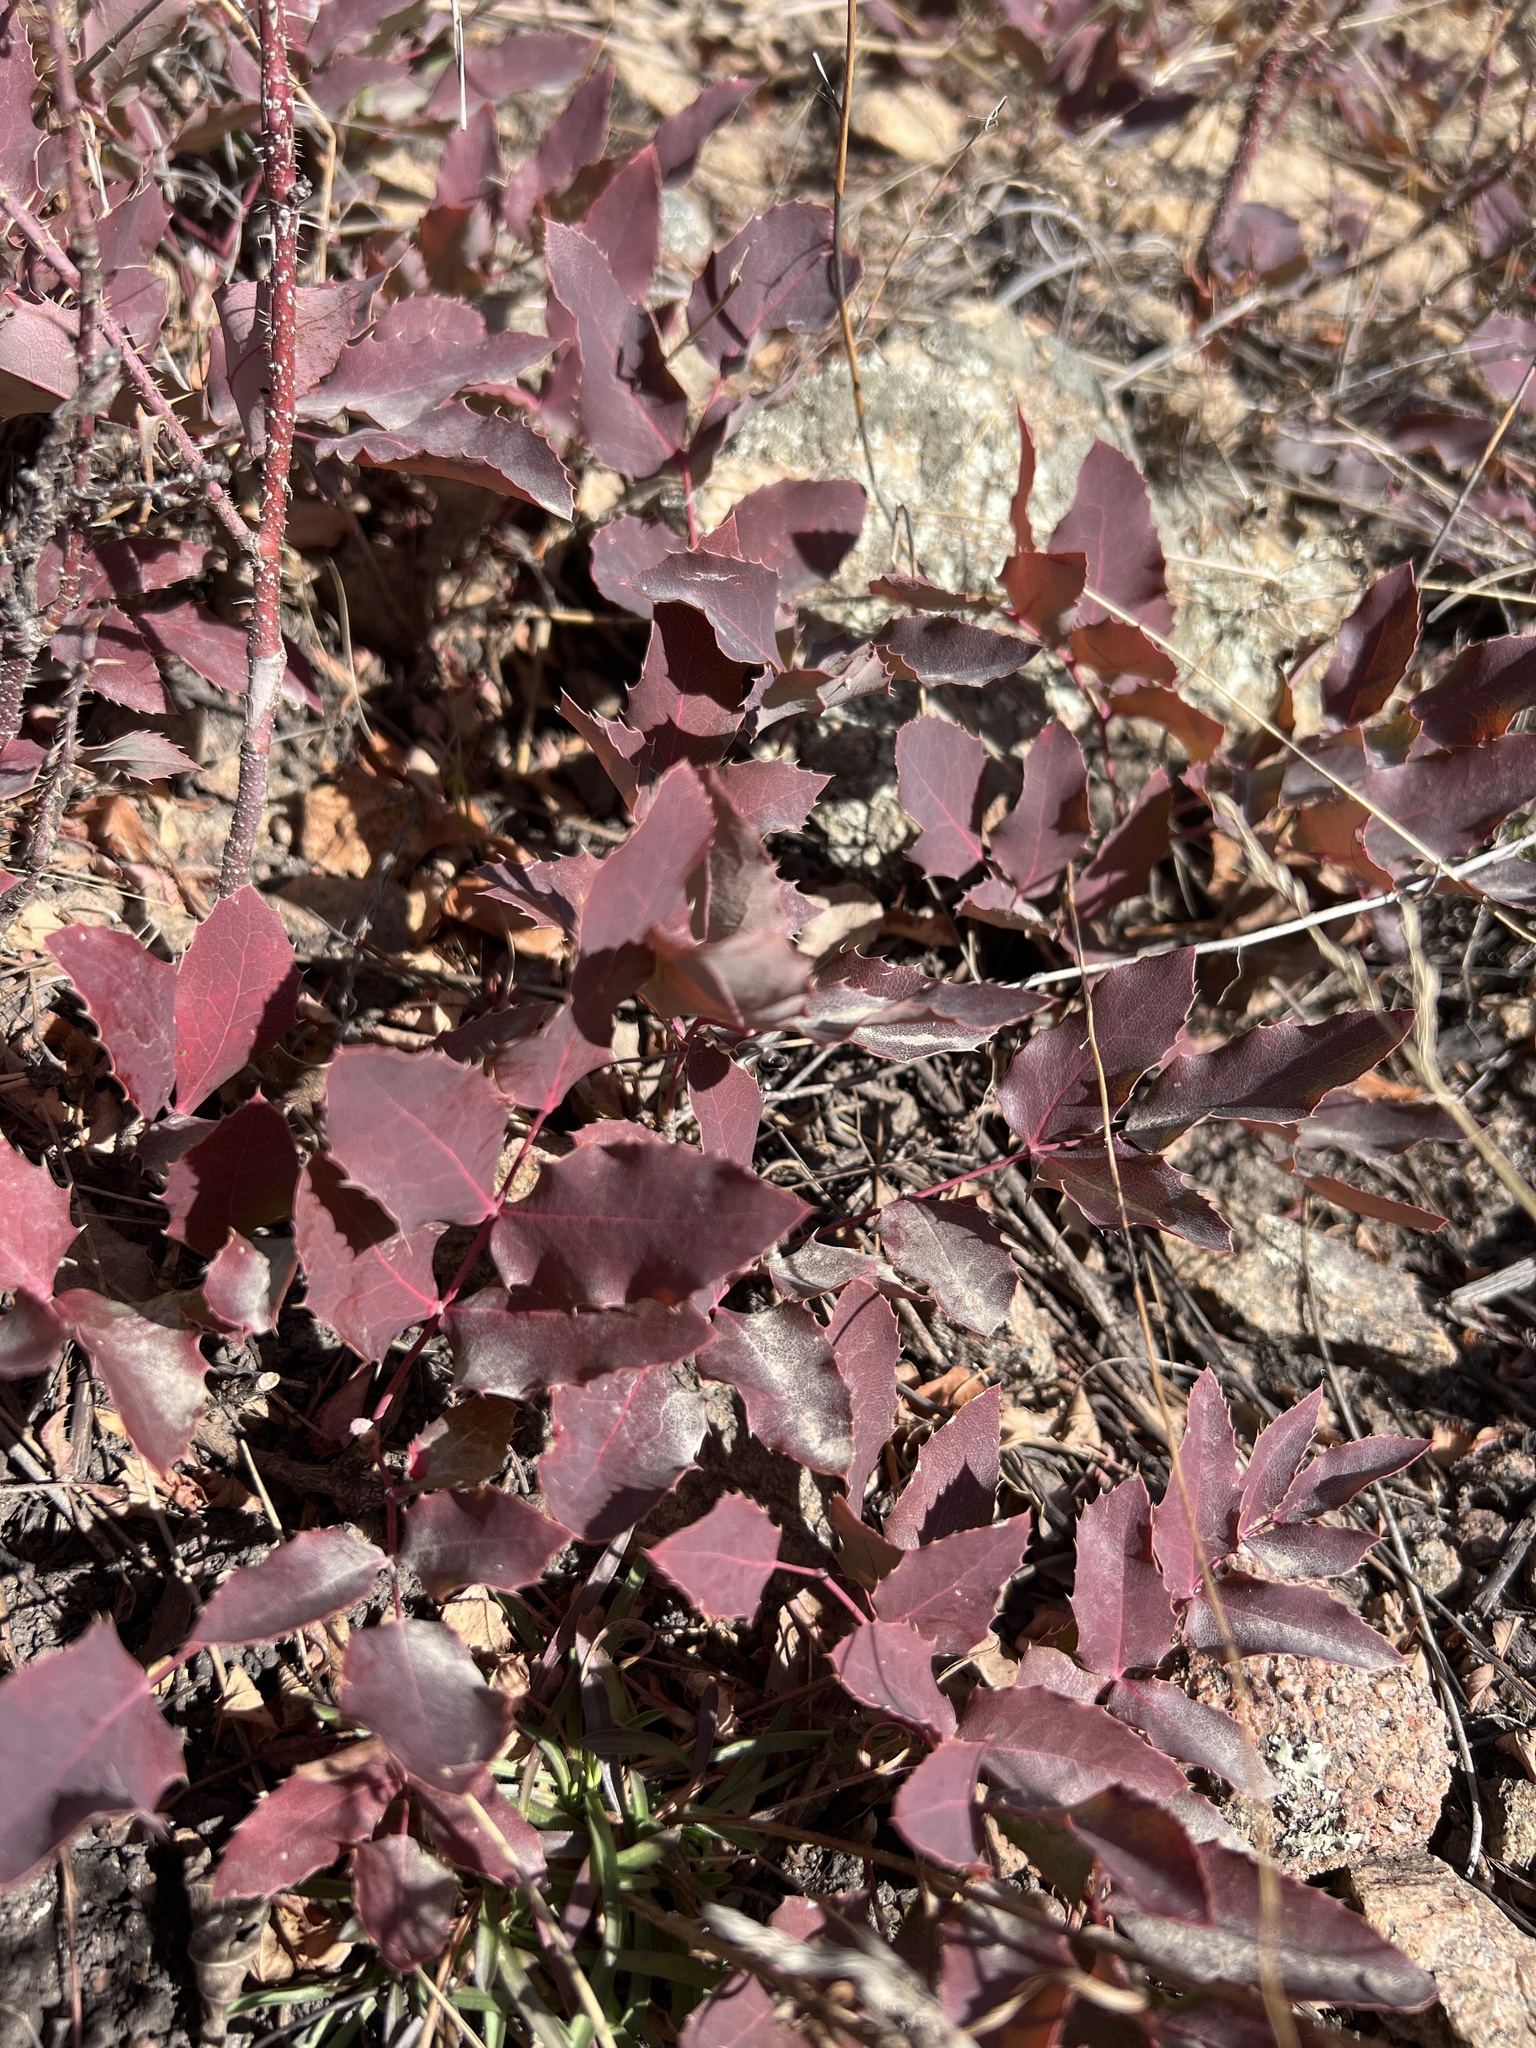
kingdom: Plantae
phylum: Tracheophyta
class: Magnoliopsida
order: Ranunculales
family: Berberidaceae
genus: Mahonia
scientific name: Mahonia repens
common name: Creeping oregon-grape
